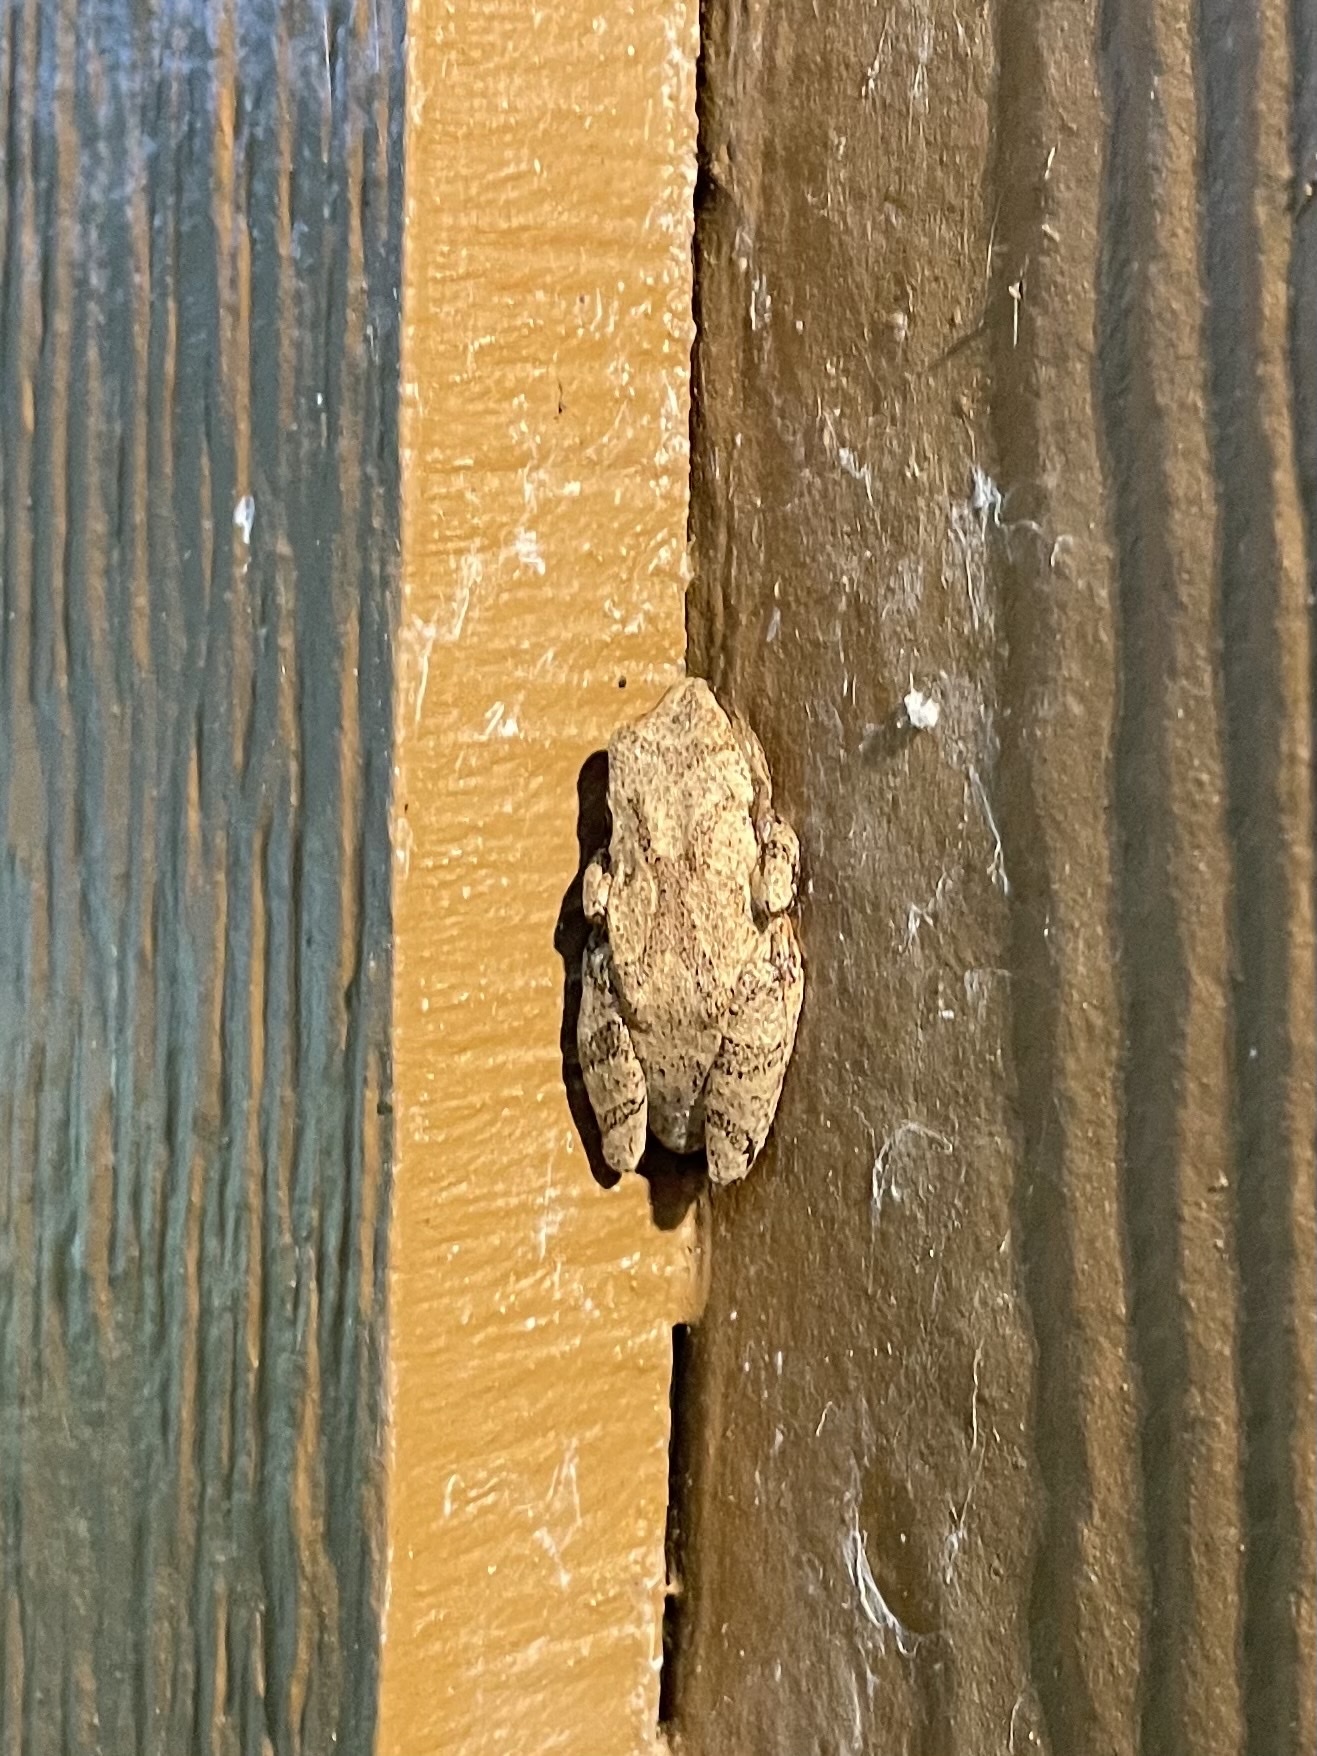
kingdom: Animalia
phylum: Chordata
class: Amphibia
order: Anura
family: Hylidae
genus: Pseudacris
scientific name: Pseudacris crucifer
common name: Spring peeper
